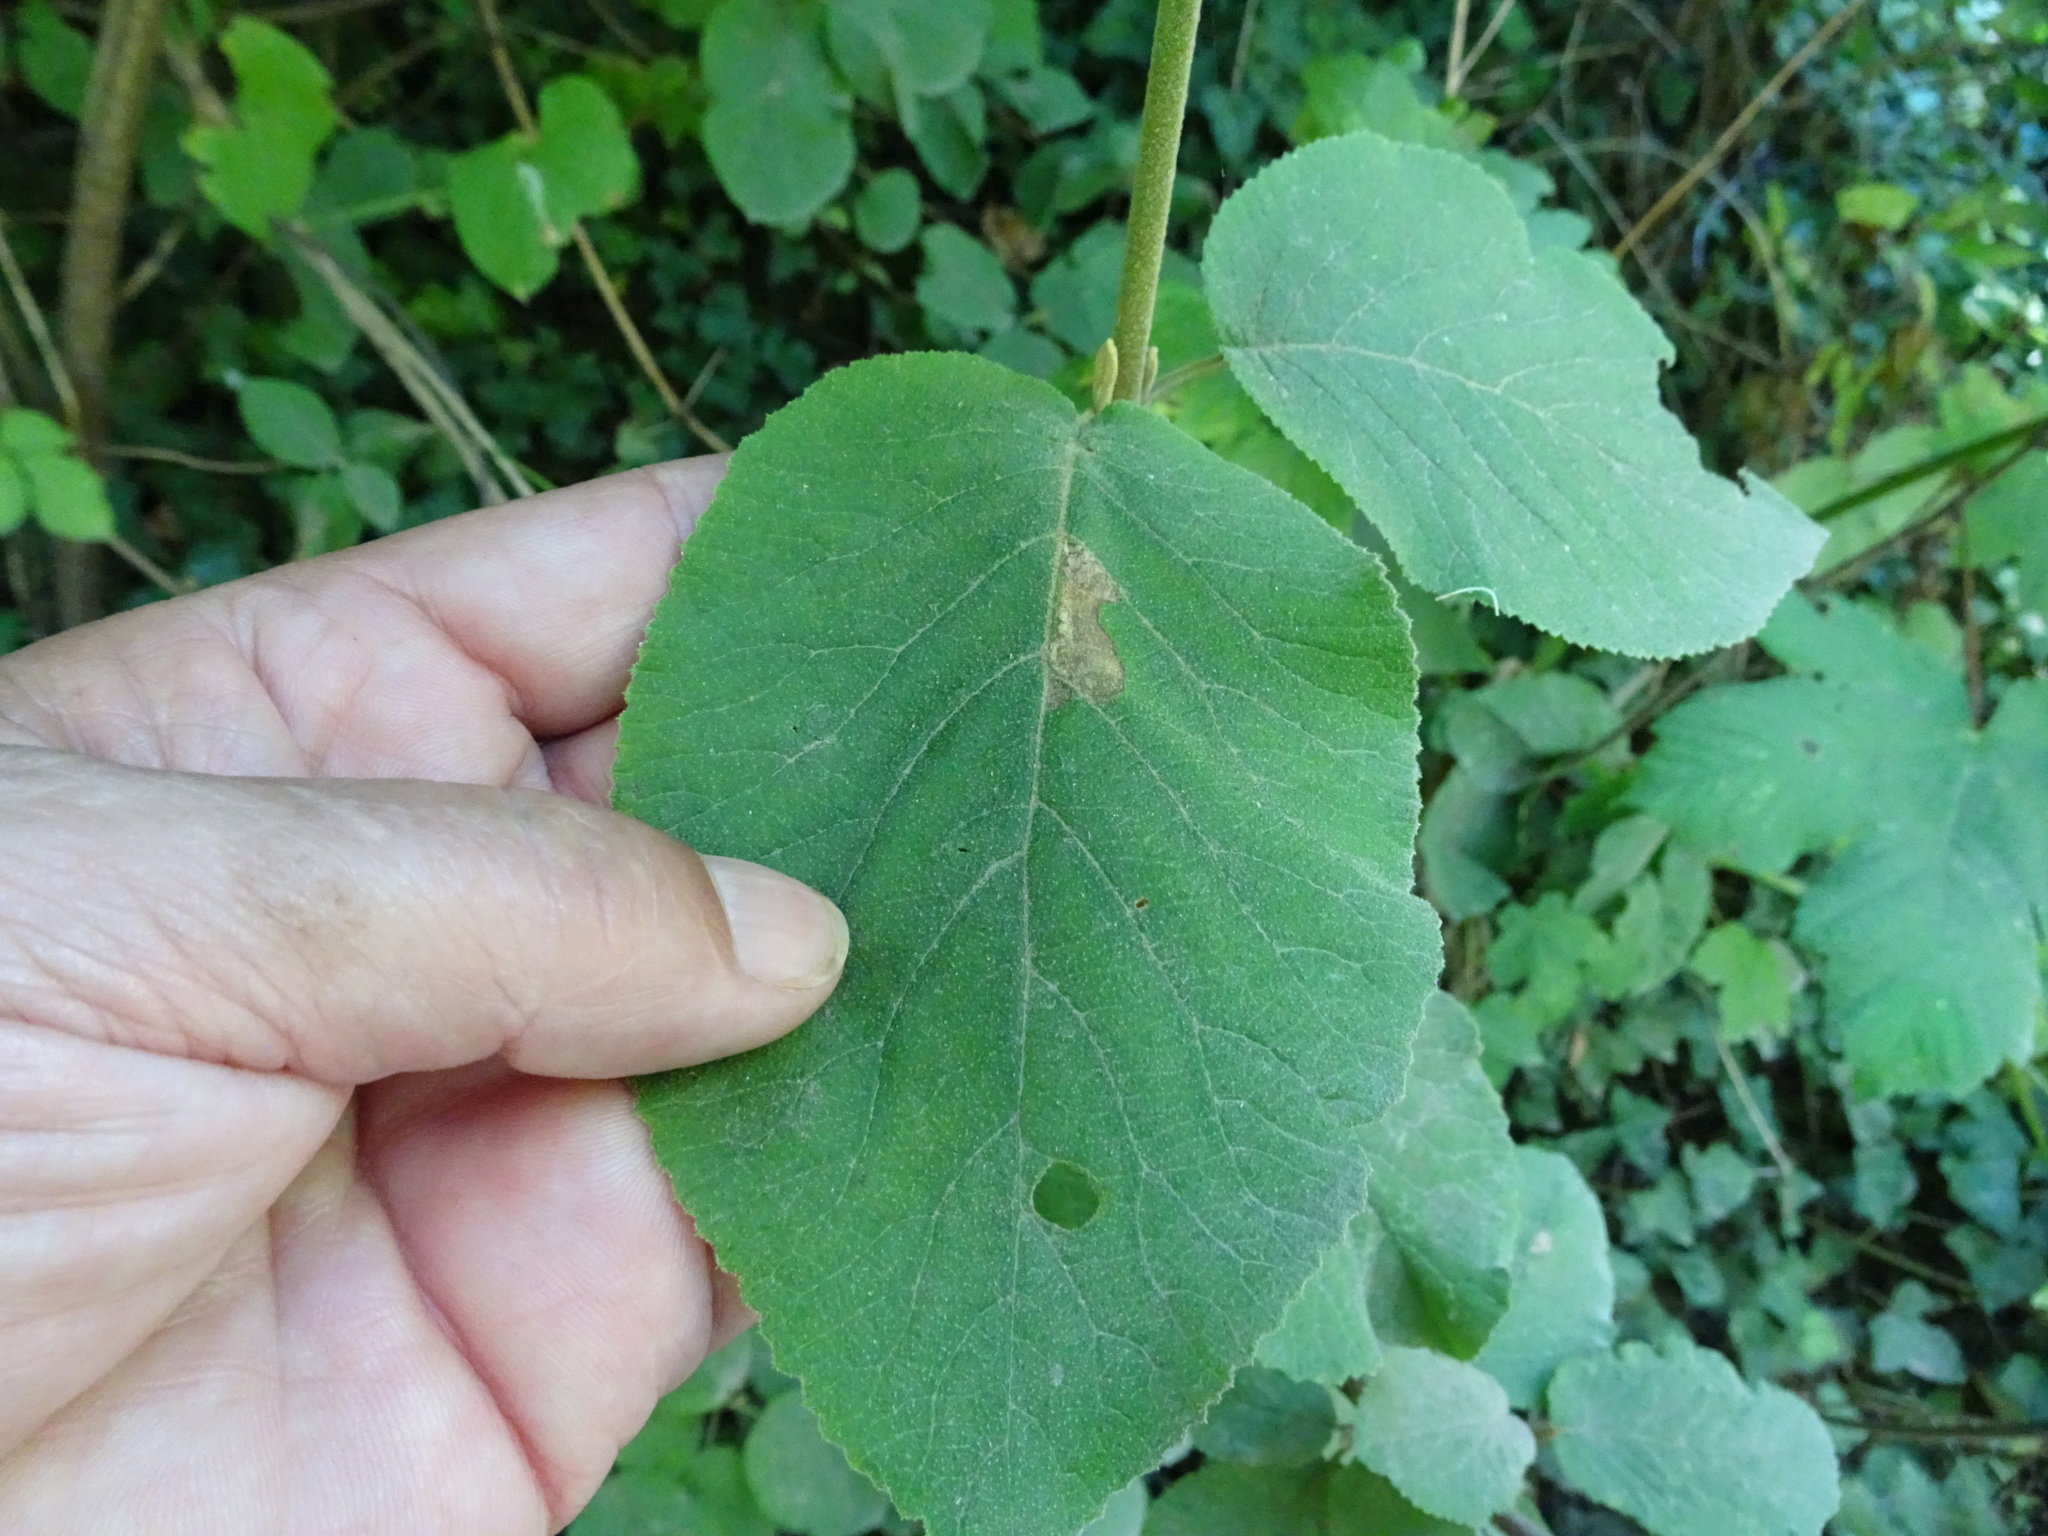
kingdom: Plantae
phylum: Tracheophyta
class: Magnoliopsida
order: Dipsacales
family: Viburnaceae
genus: Viburnum
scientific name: Viburnum lantana
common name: Wayfaring tree
